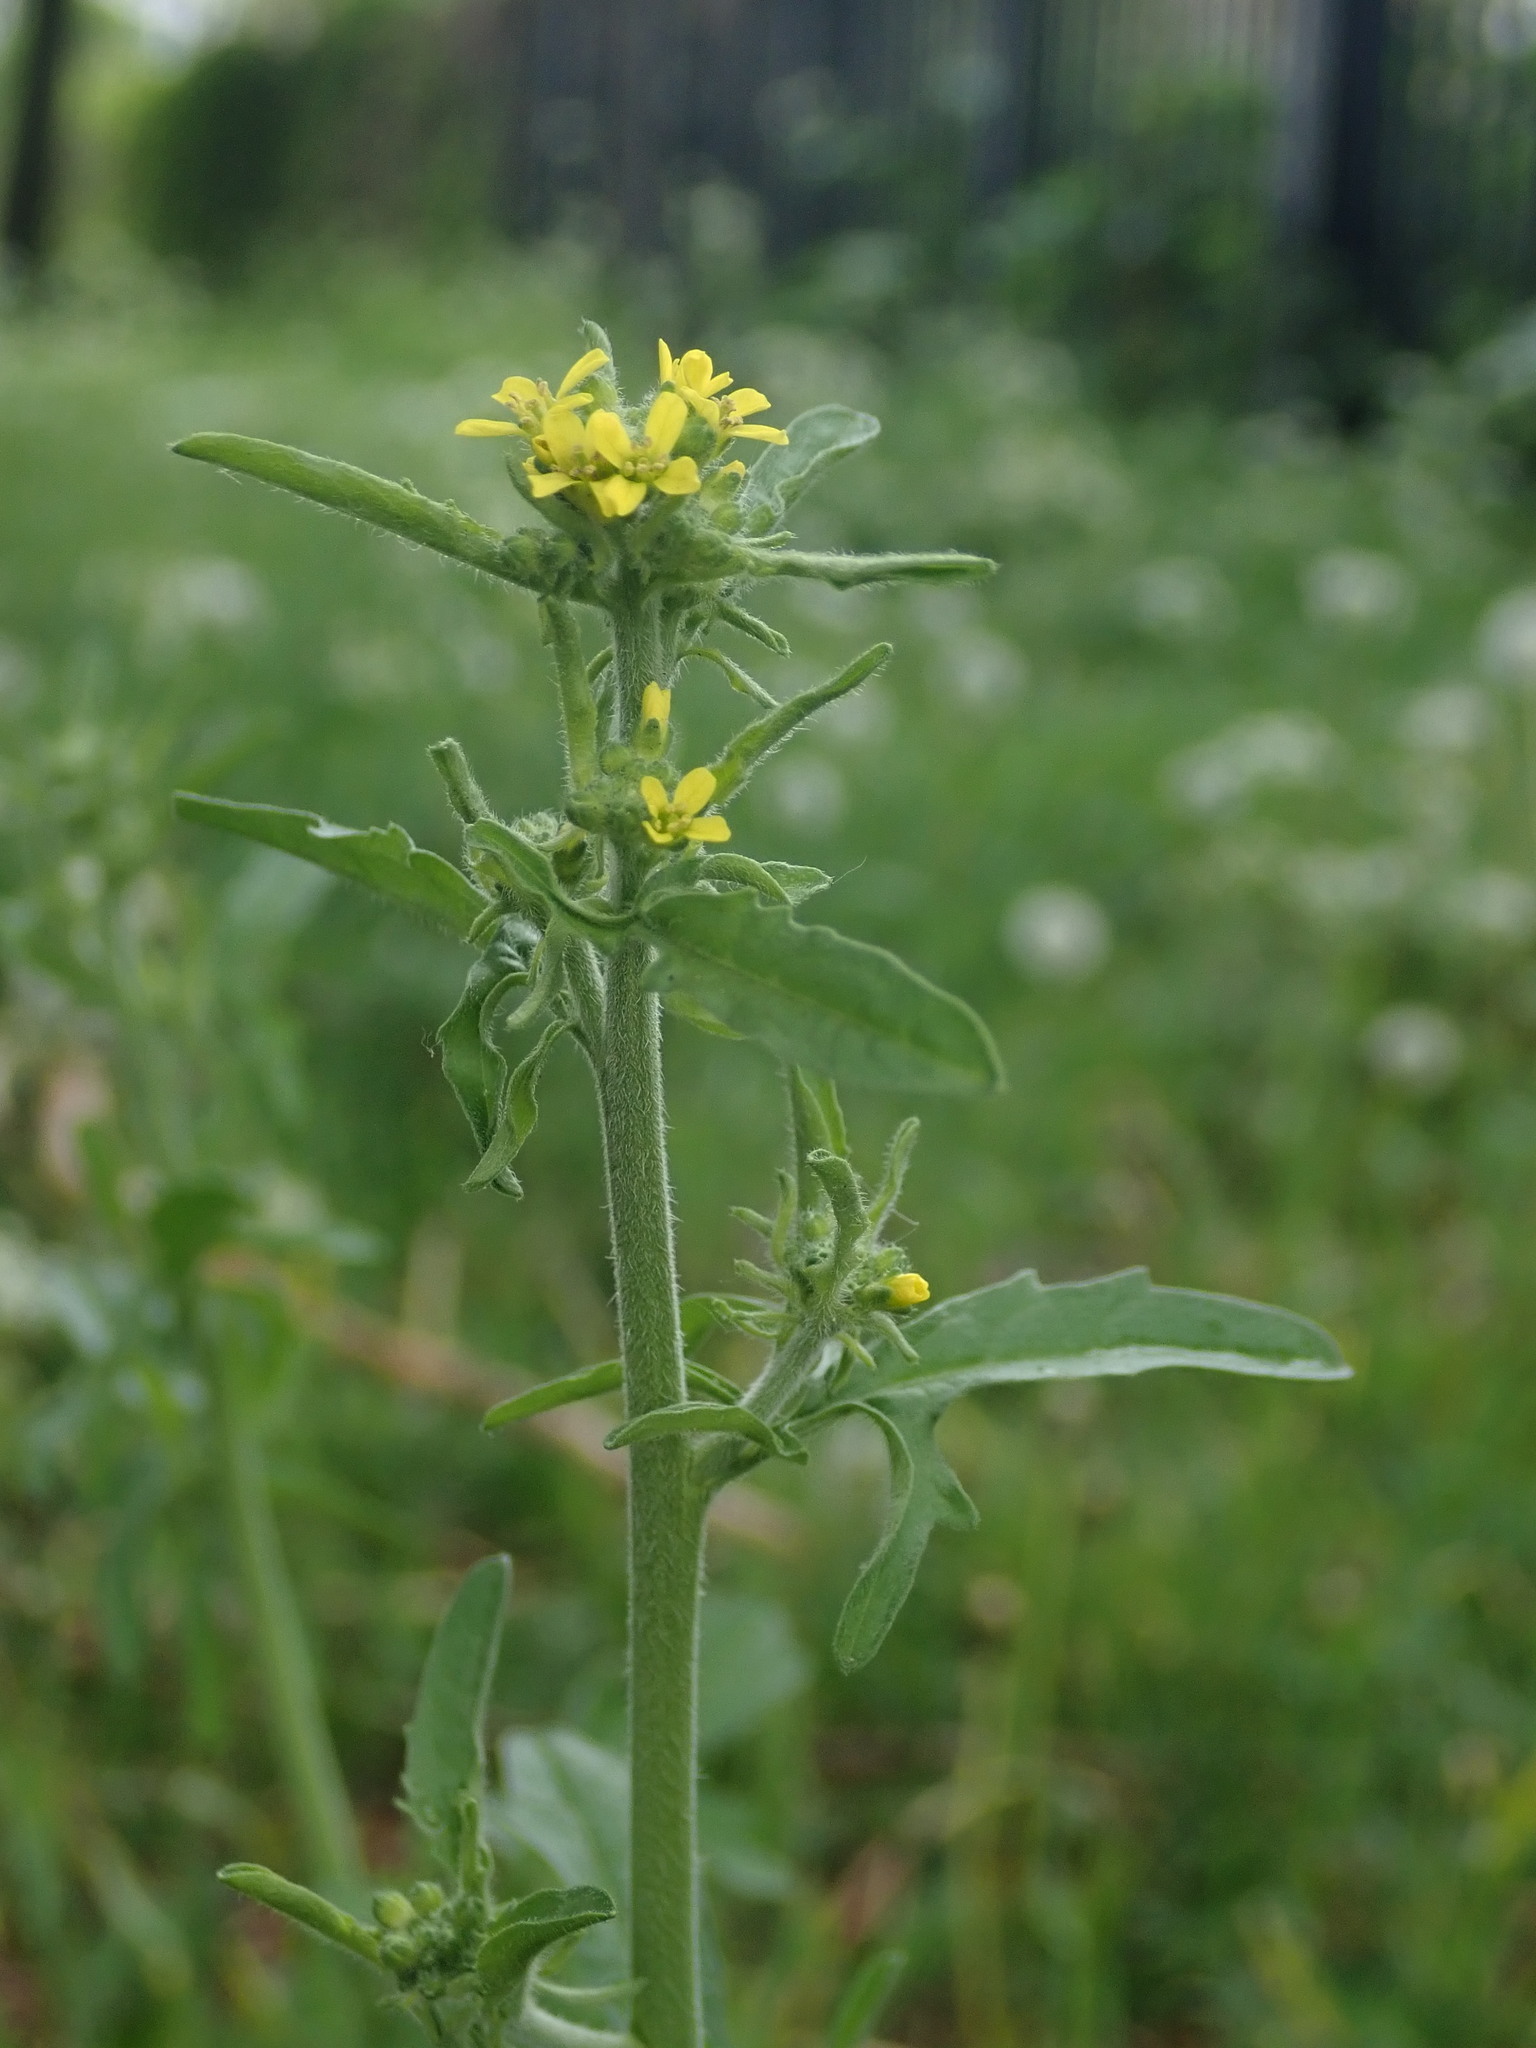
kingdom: Plantae
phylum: Tracheophyta
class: Magnoliopsida
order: Brassicales
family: Brassicaceae
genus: Sisymbrium
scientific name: Sisymbrium officinale
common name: Hedge mustard
